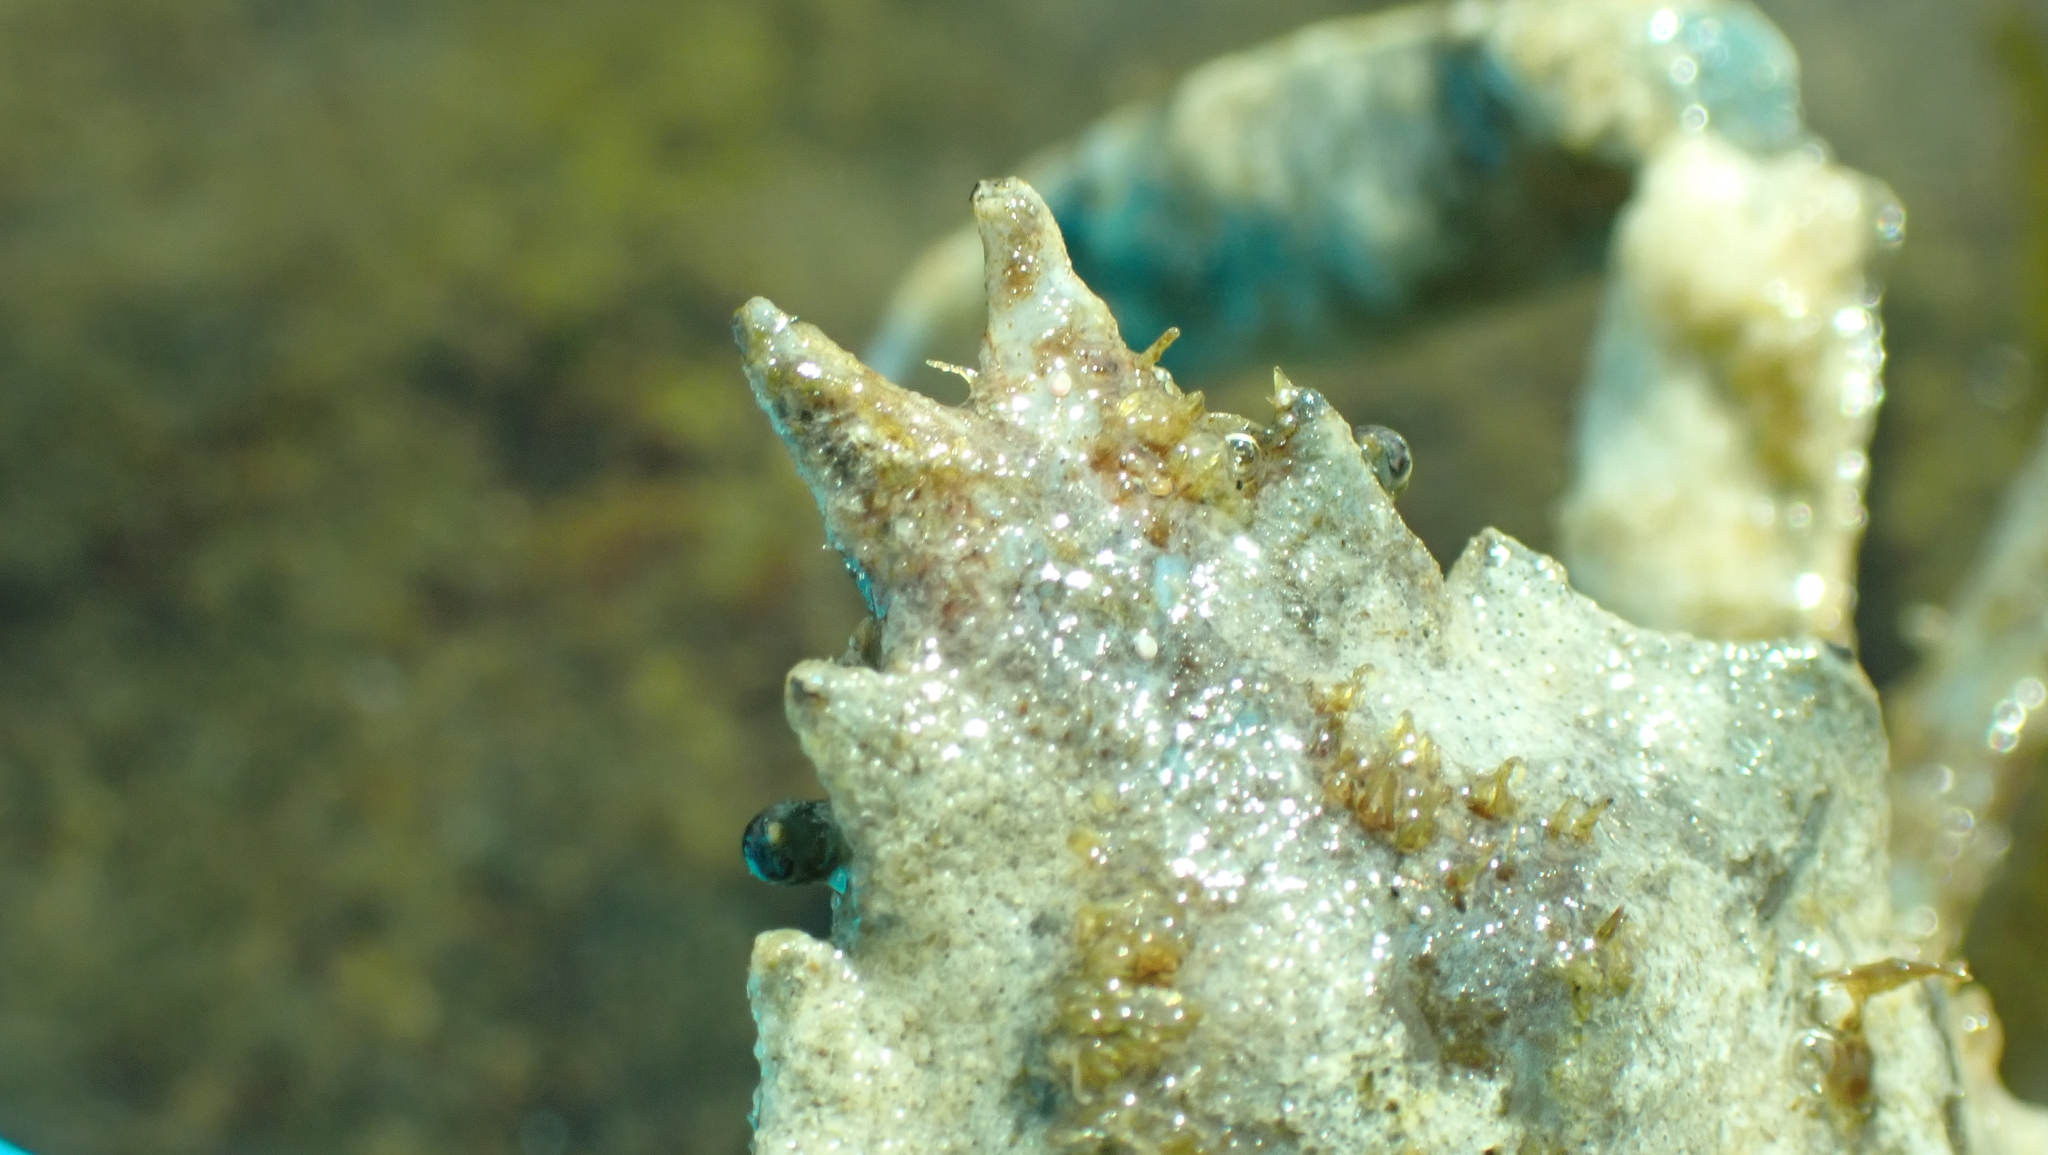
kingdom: Animalia
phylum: Arthropoda
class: Malacostraca
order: Decapoda
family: Epialtidae
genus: Pugettia
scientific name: Pugettia gracilis
